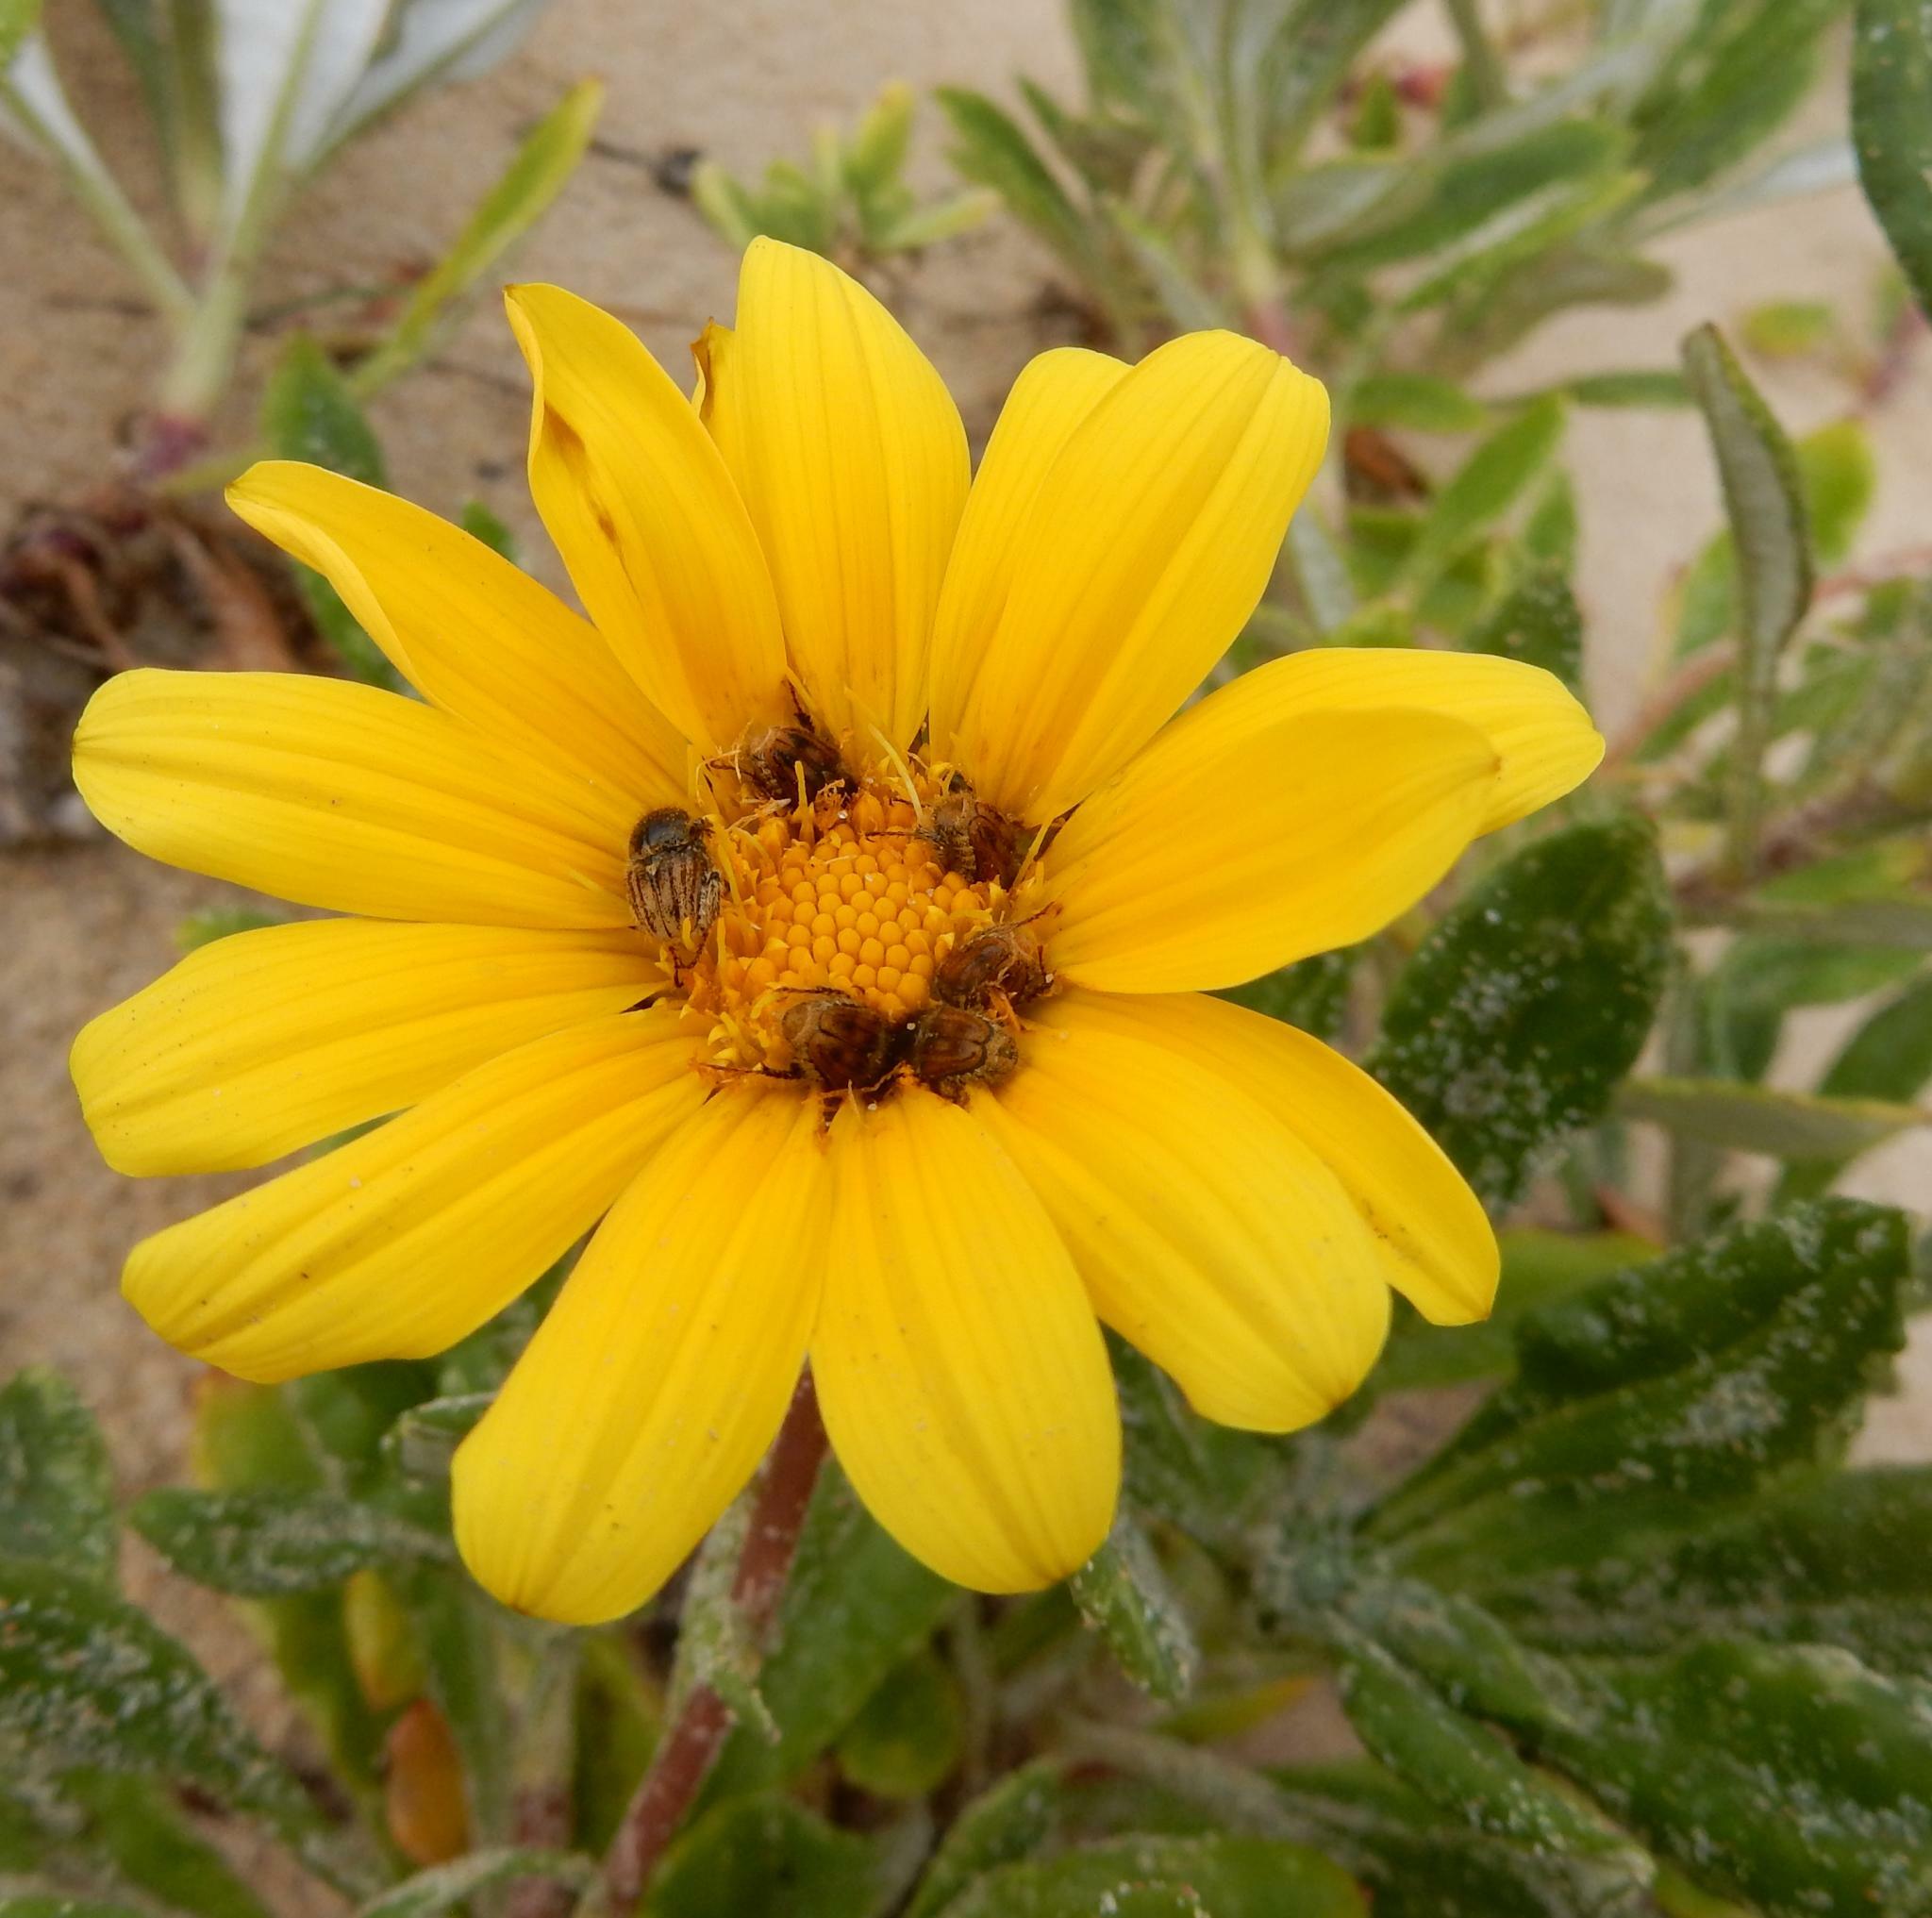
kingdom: Plantae
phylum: Tracheophyta
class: Magnoliopsida
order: Asterales
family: Asteraceae
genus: Gazania
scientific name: Gazania rigens
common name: Treasureflower
